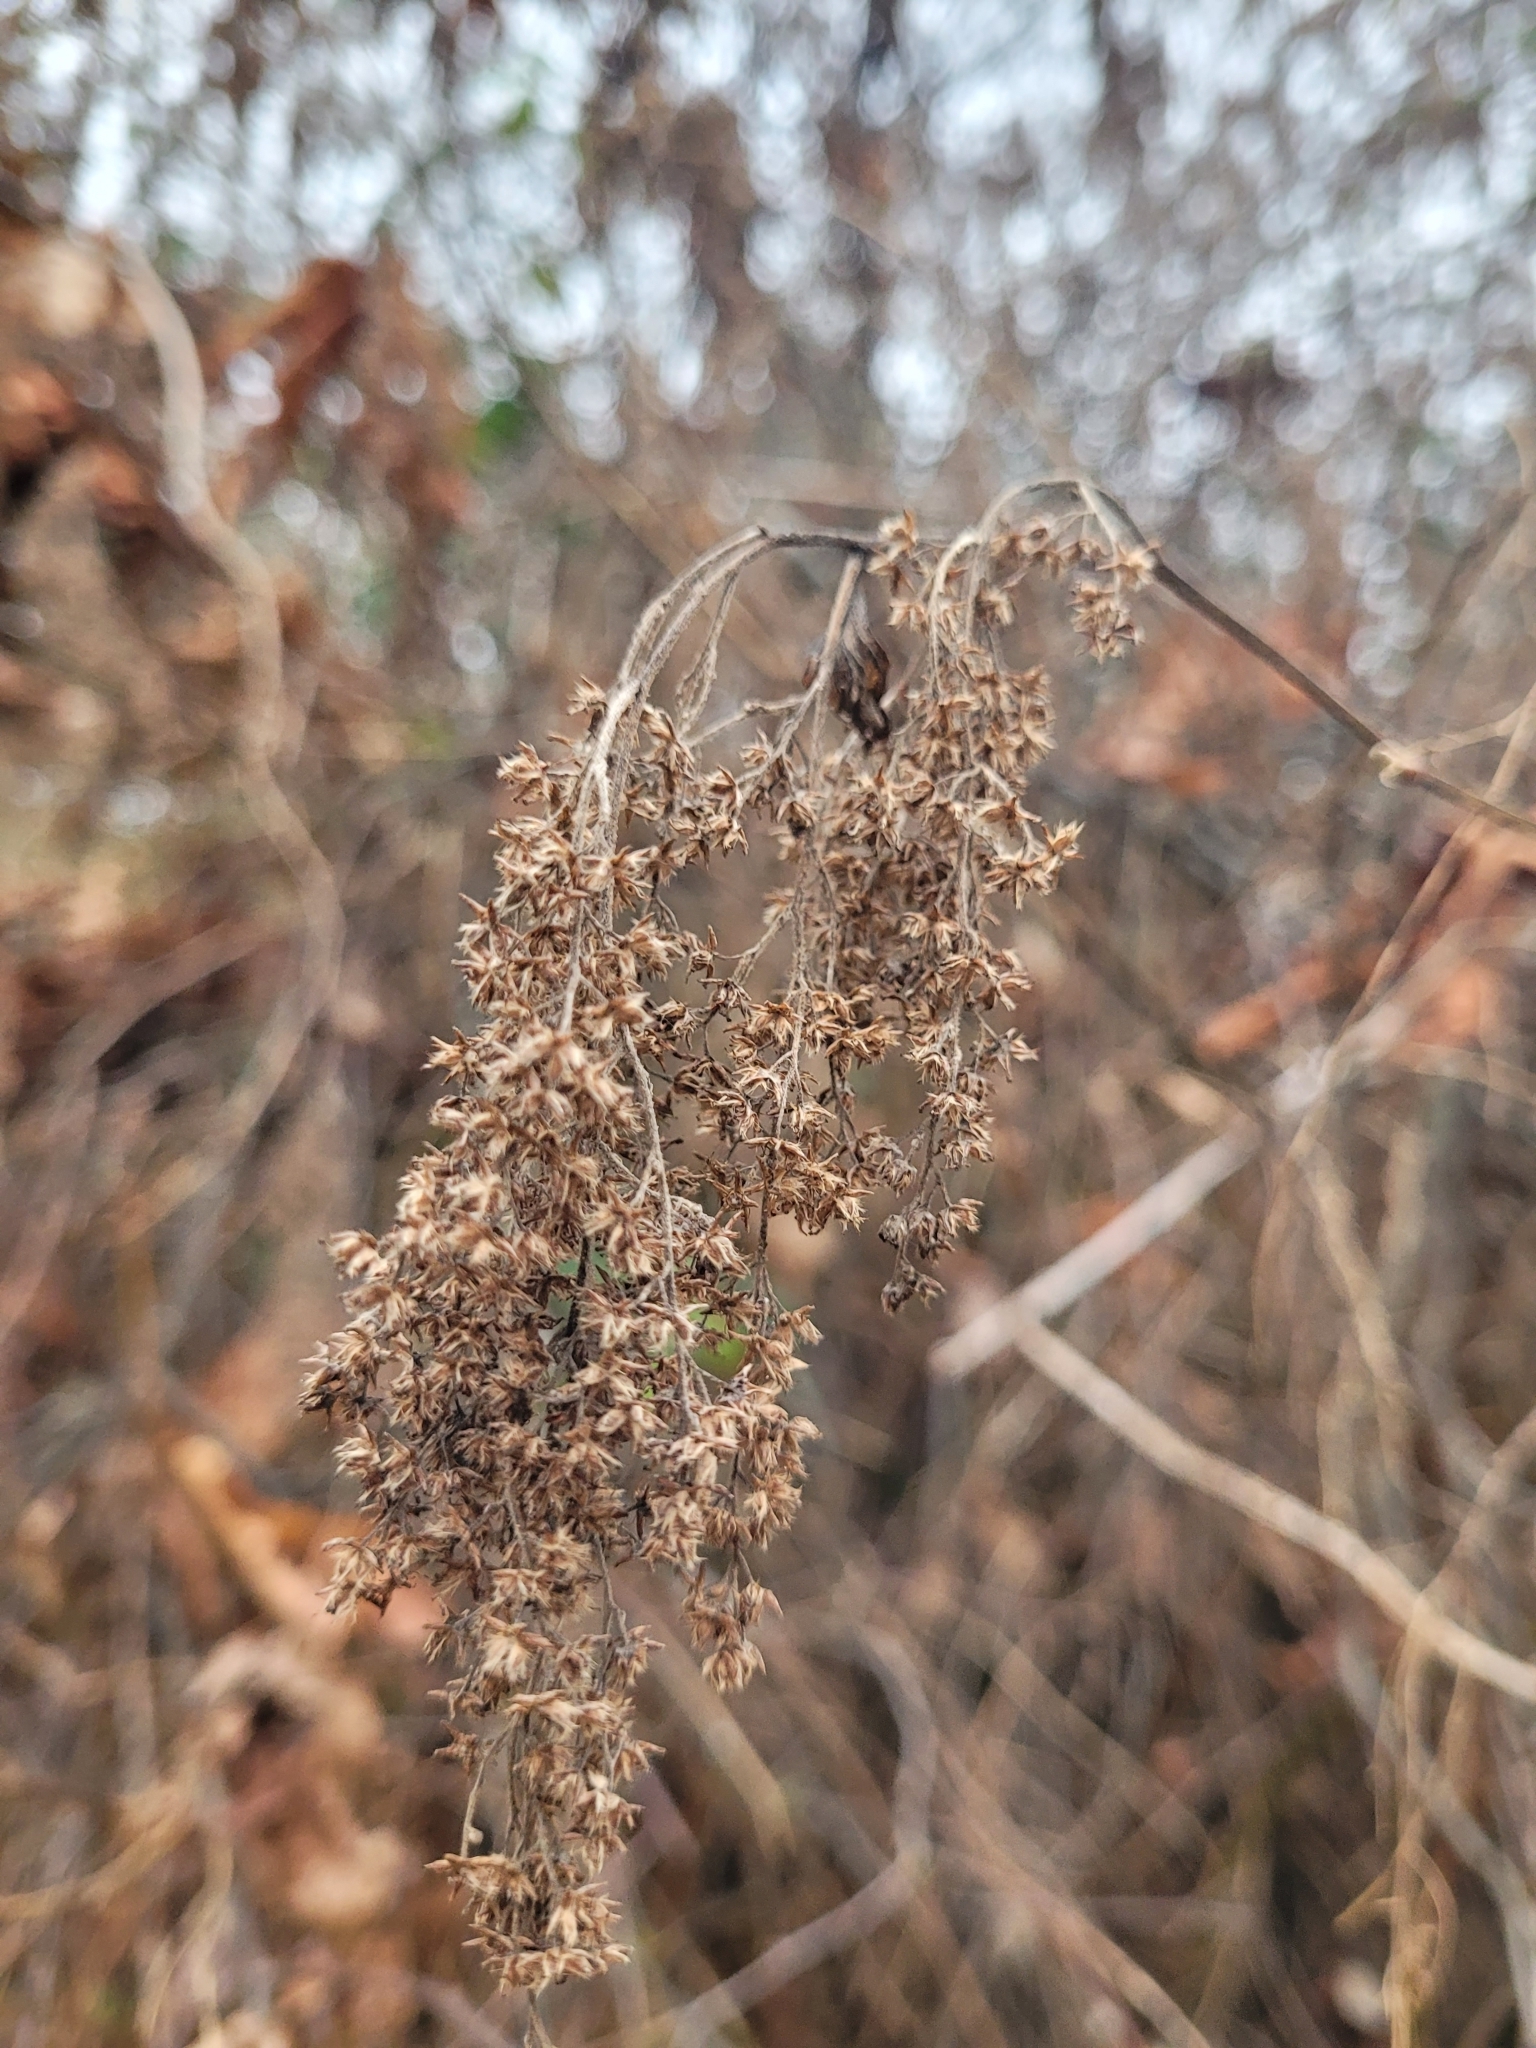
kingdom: Plantae
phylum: Tracheophyta
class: Magnoliopsida
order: Rosales
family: Rosaceae
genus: Holodiscus
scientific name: Holodiscus discolor
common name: Oceanspray
